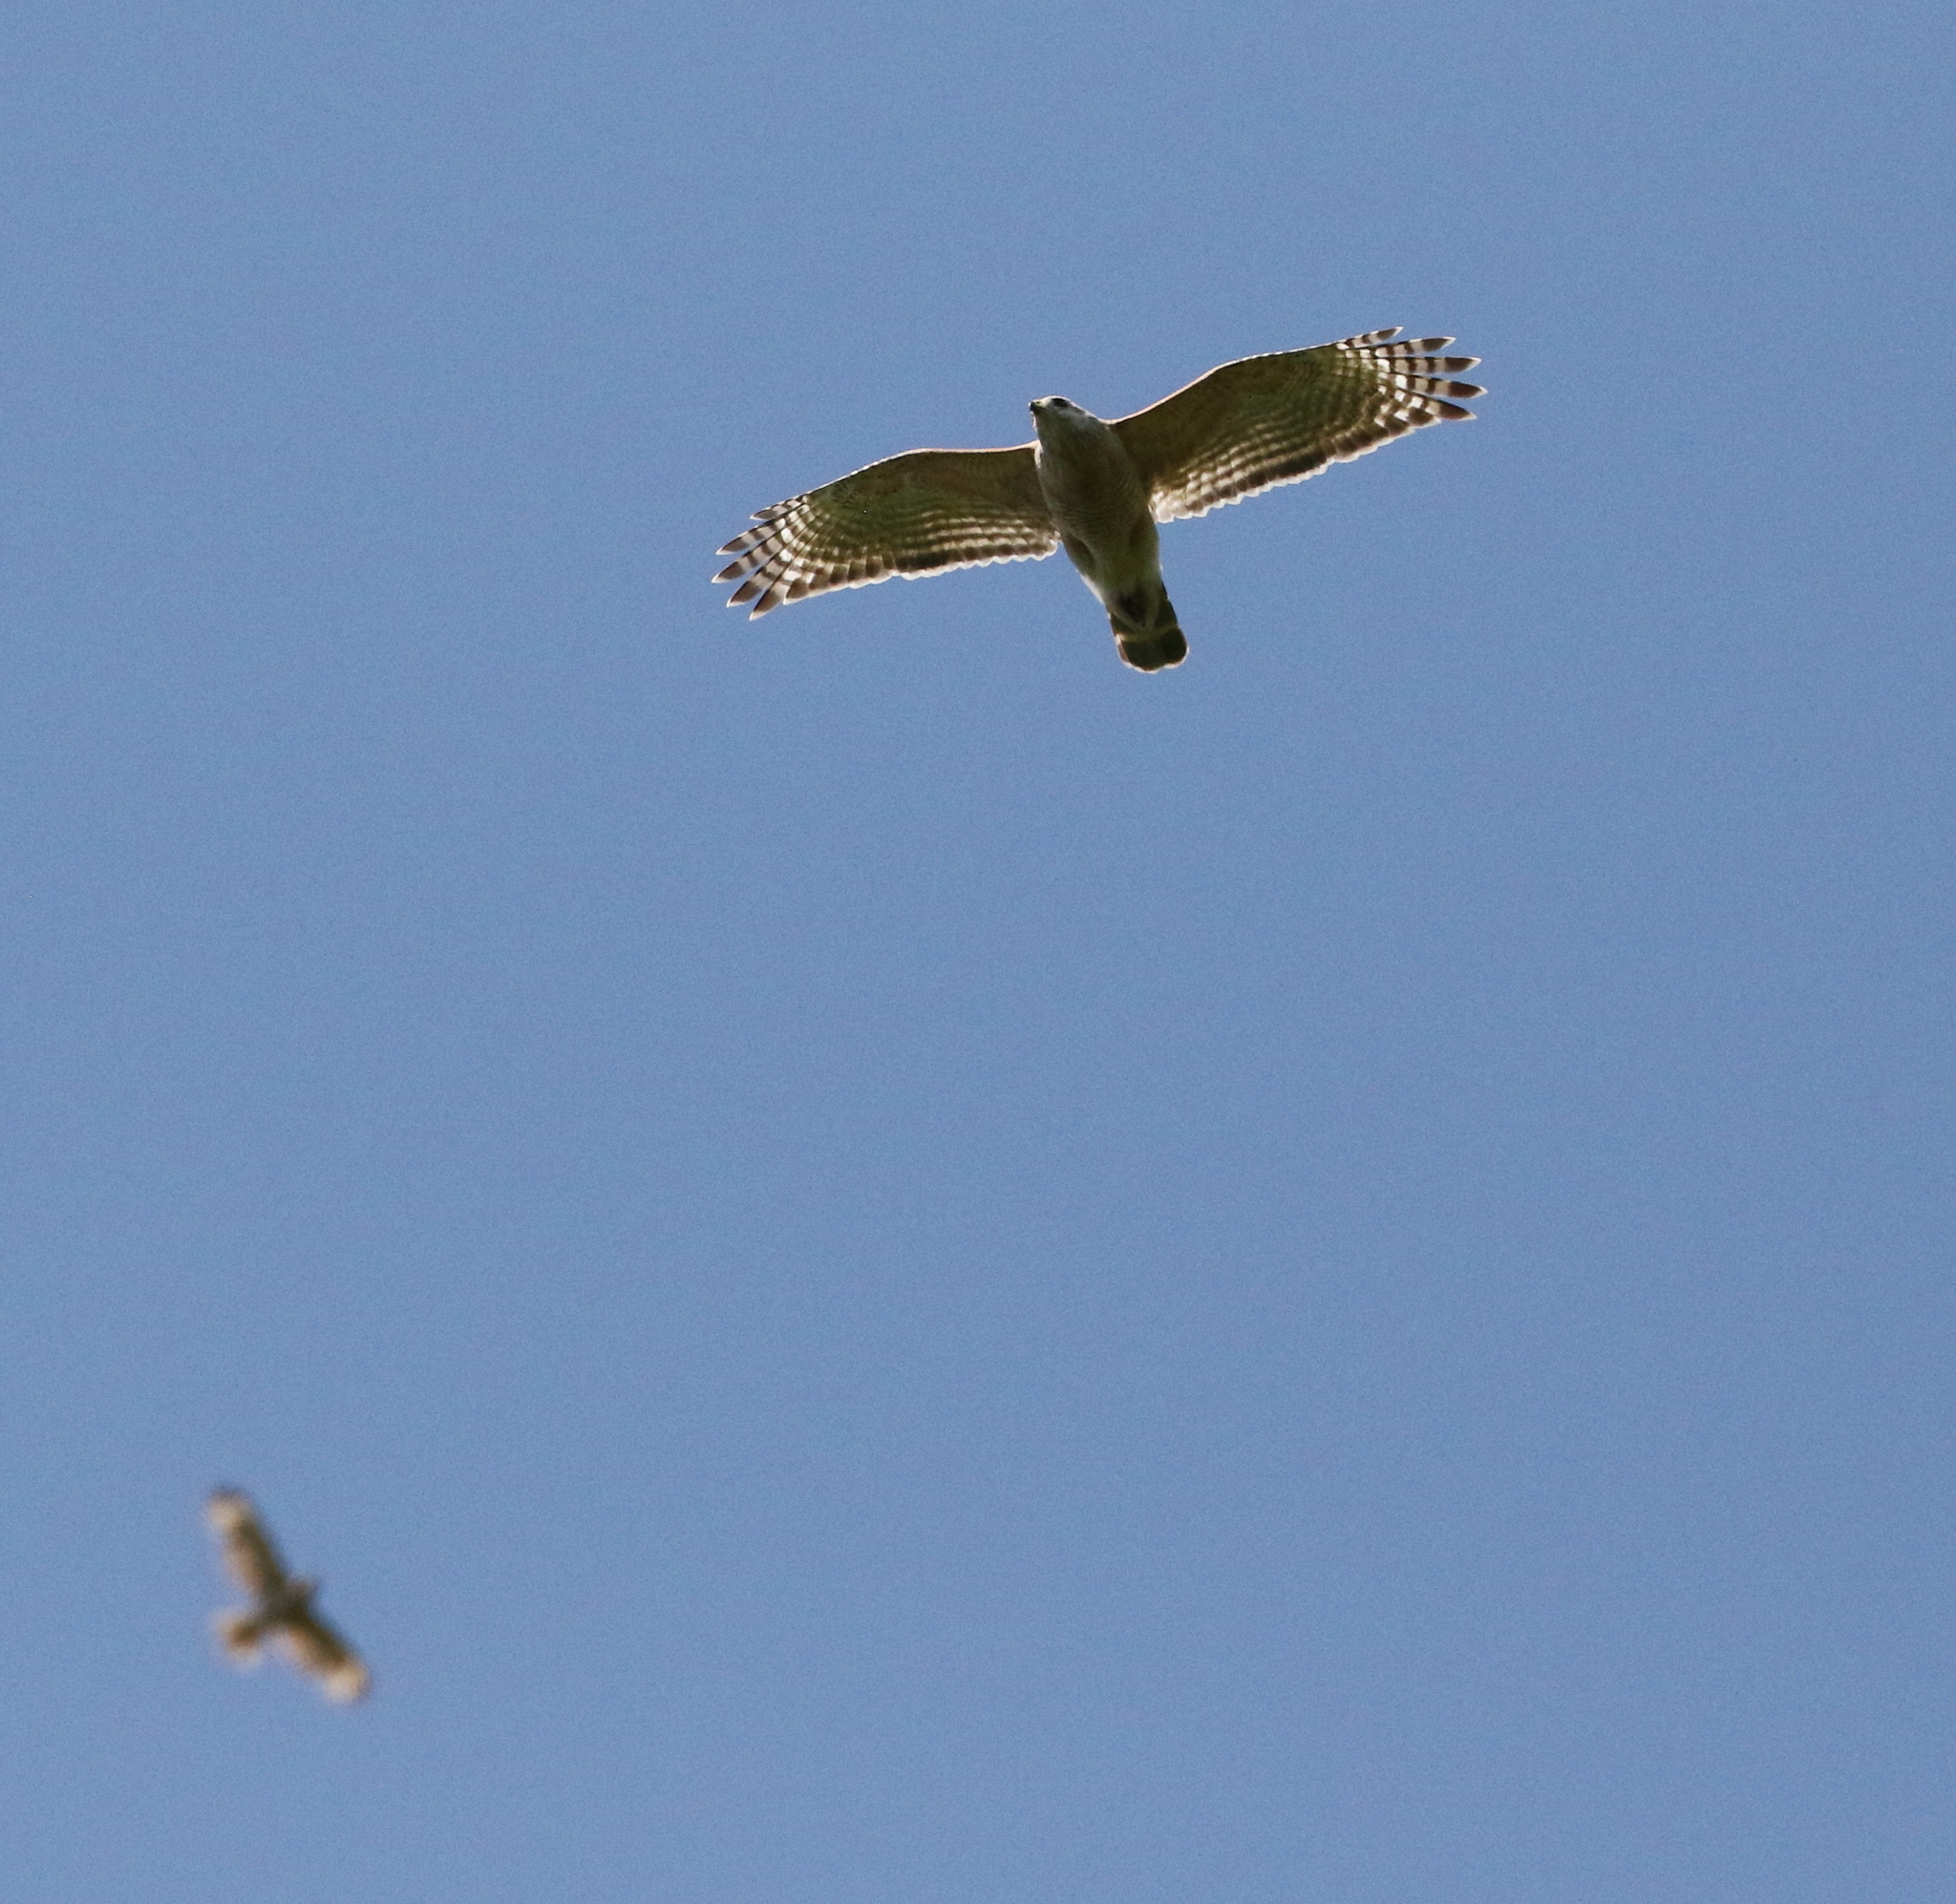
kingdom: Animalia
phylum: Chordata
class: Aves
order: Accipitriformes
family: Accipitridae
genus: Buteo
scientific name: Buteo lineatus
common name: Red-shouldered hawk
